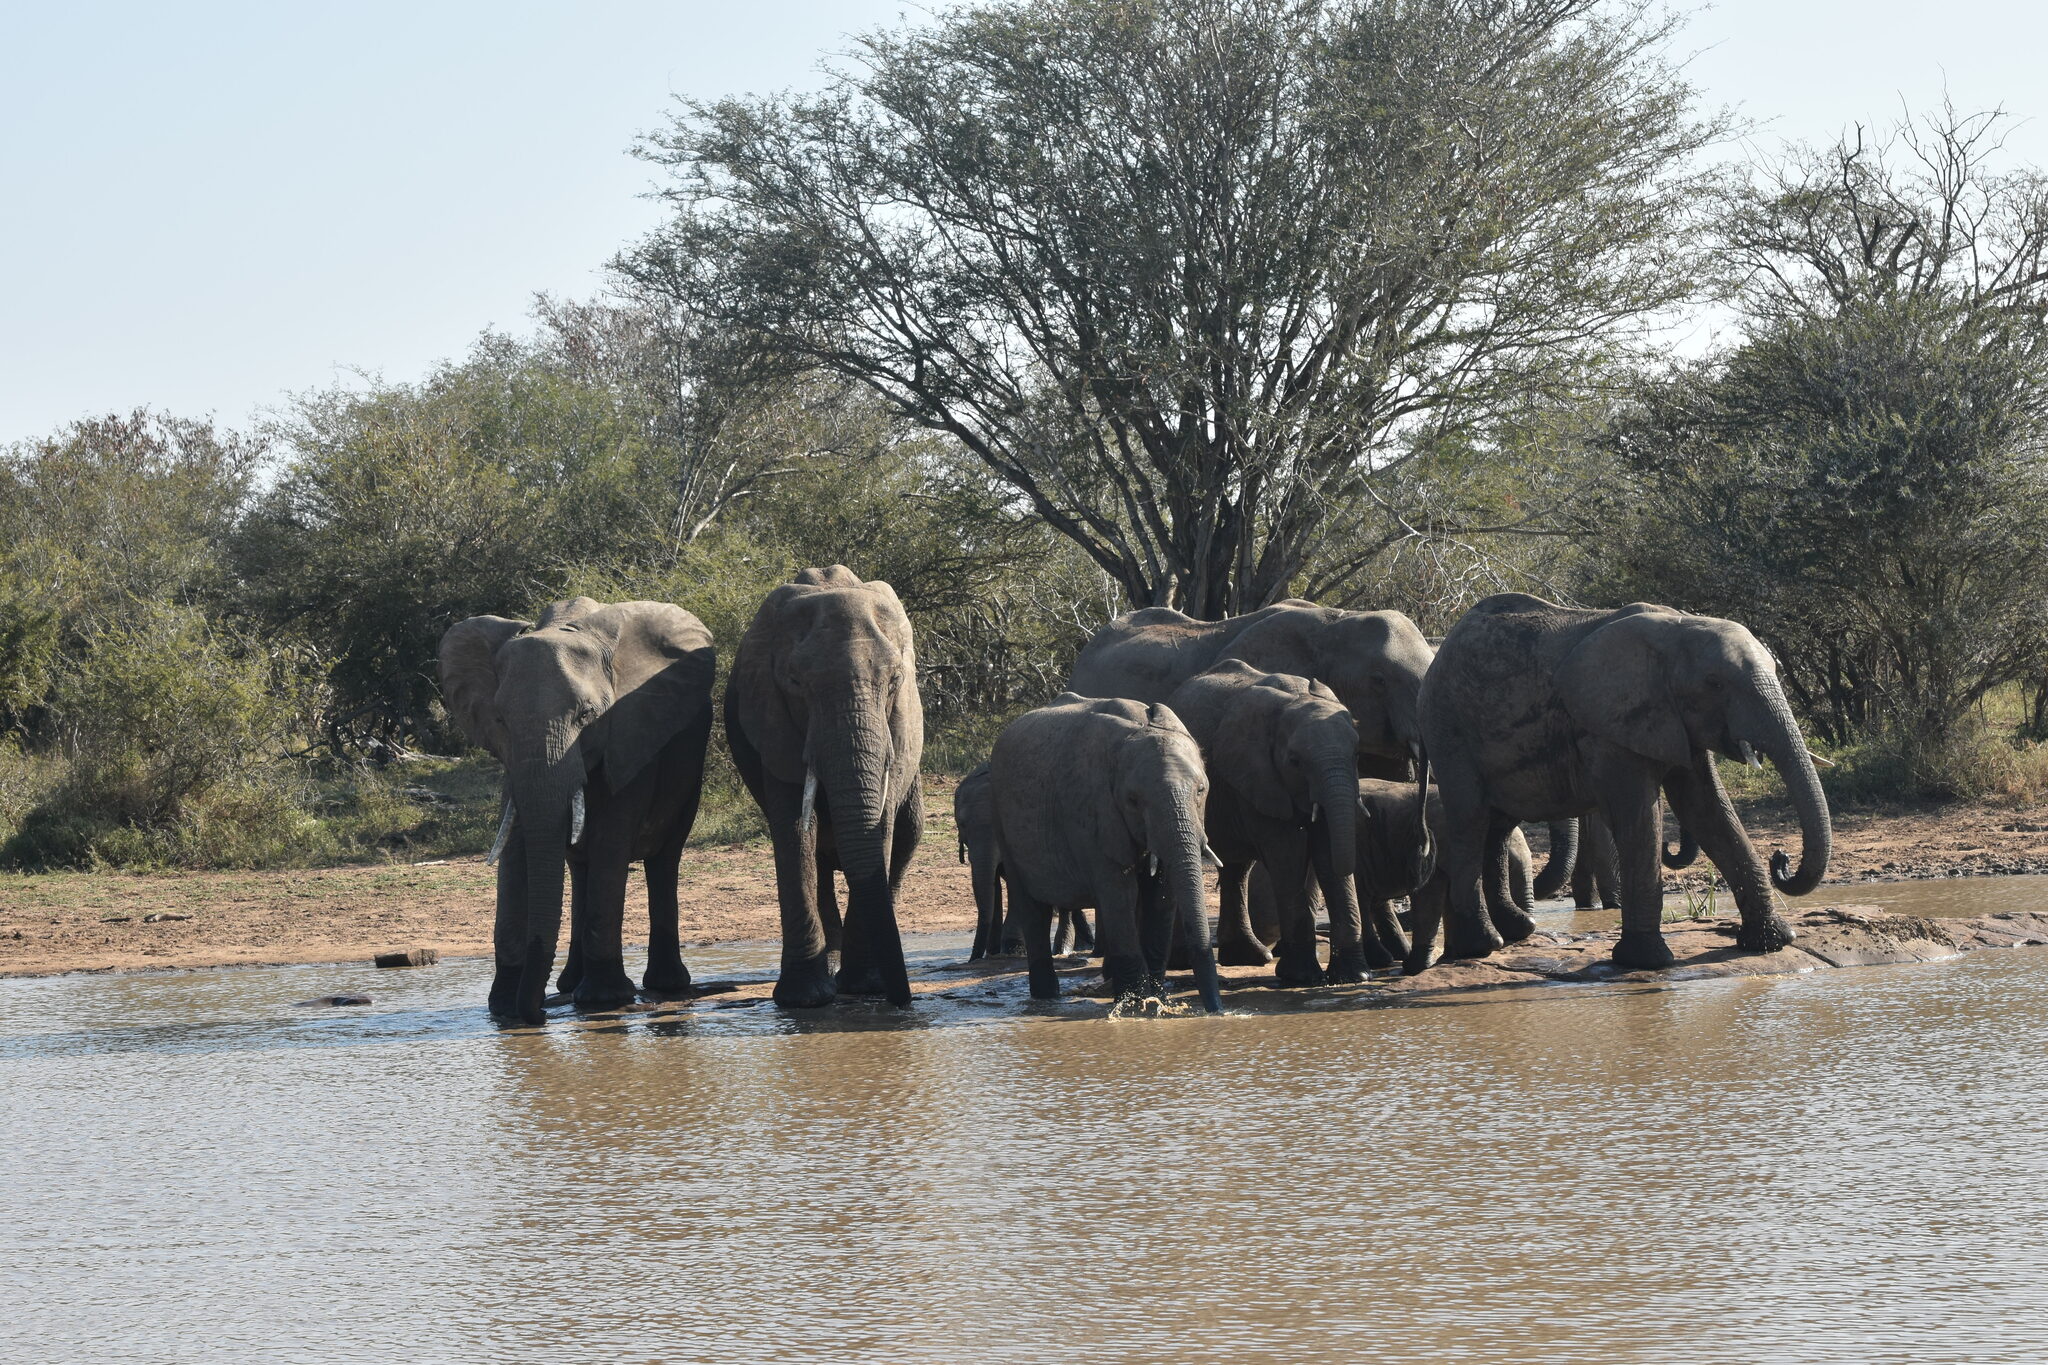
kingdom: Animalia
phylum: Chordata
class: Mammalia
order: Proboscidea
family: Elephantidae
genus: Loxodonta
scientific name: Loxodonta africana
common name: African elephant
